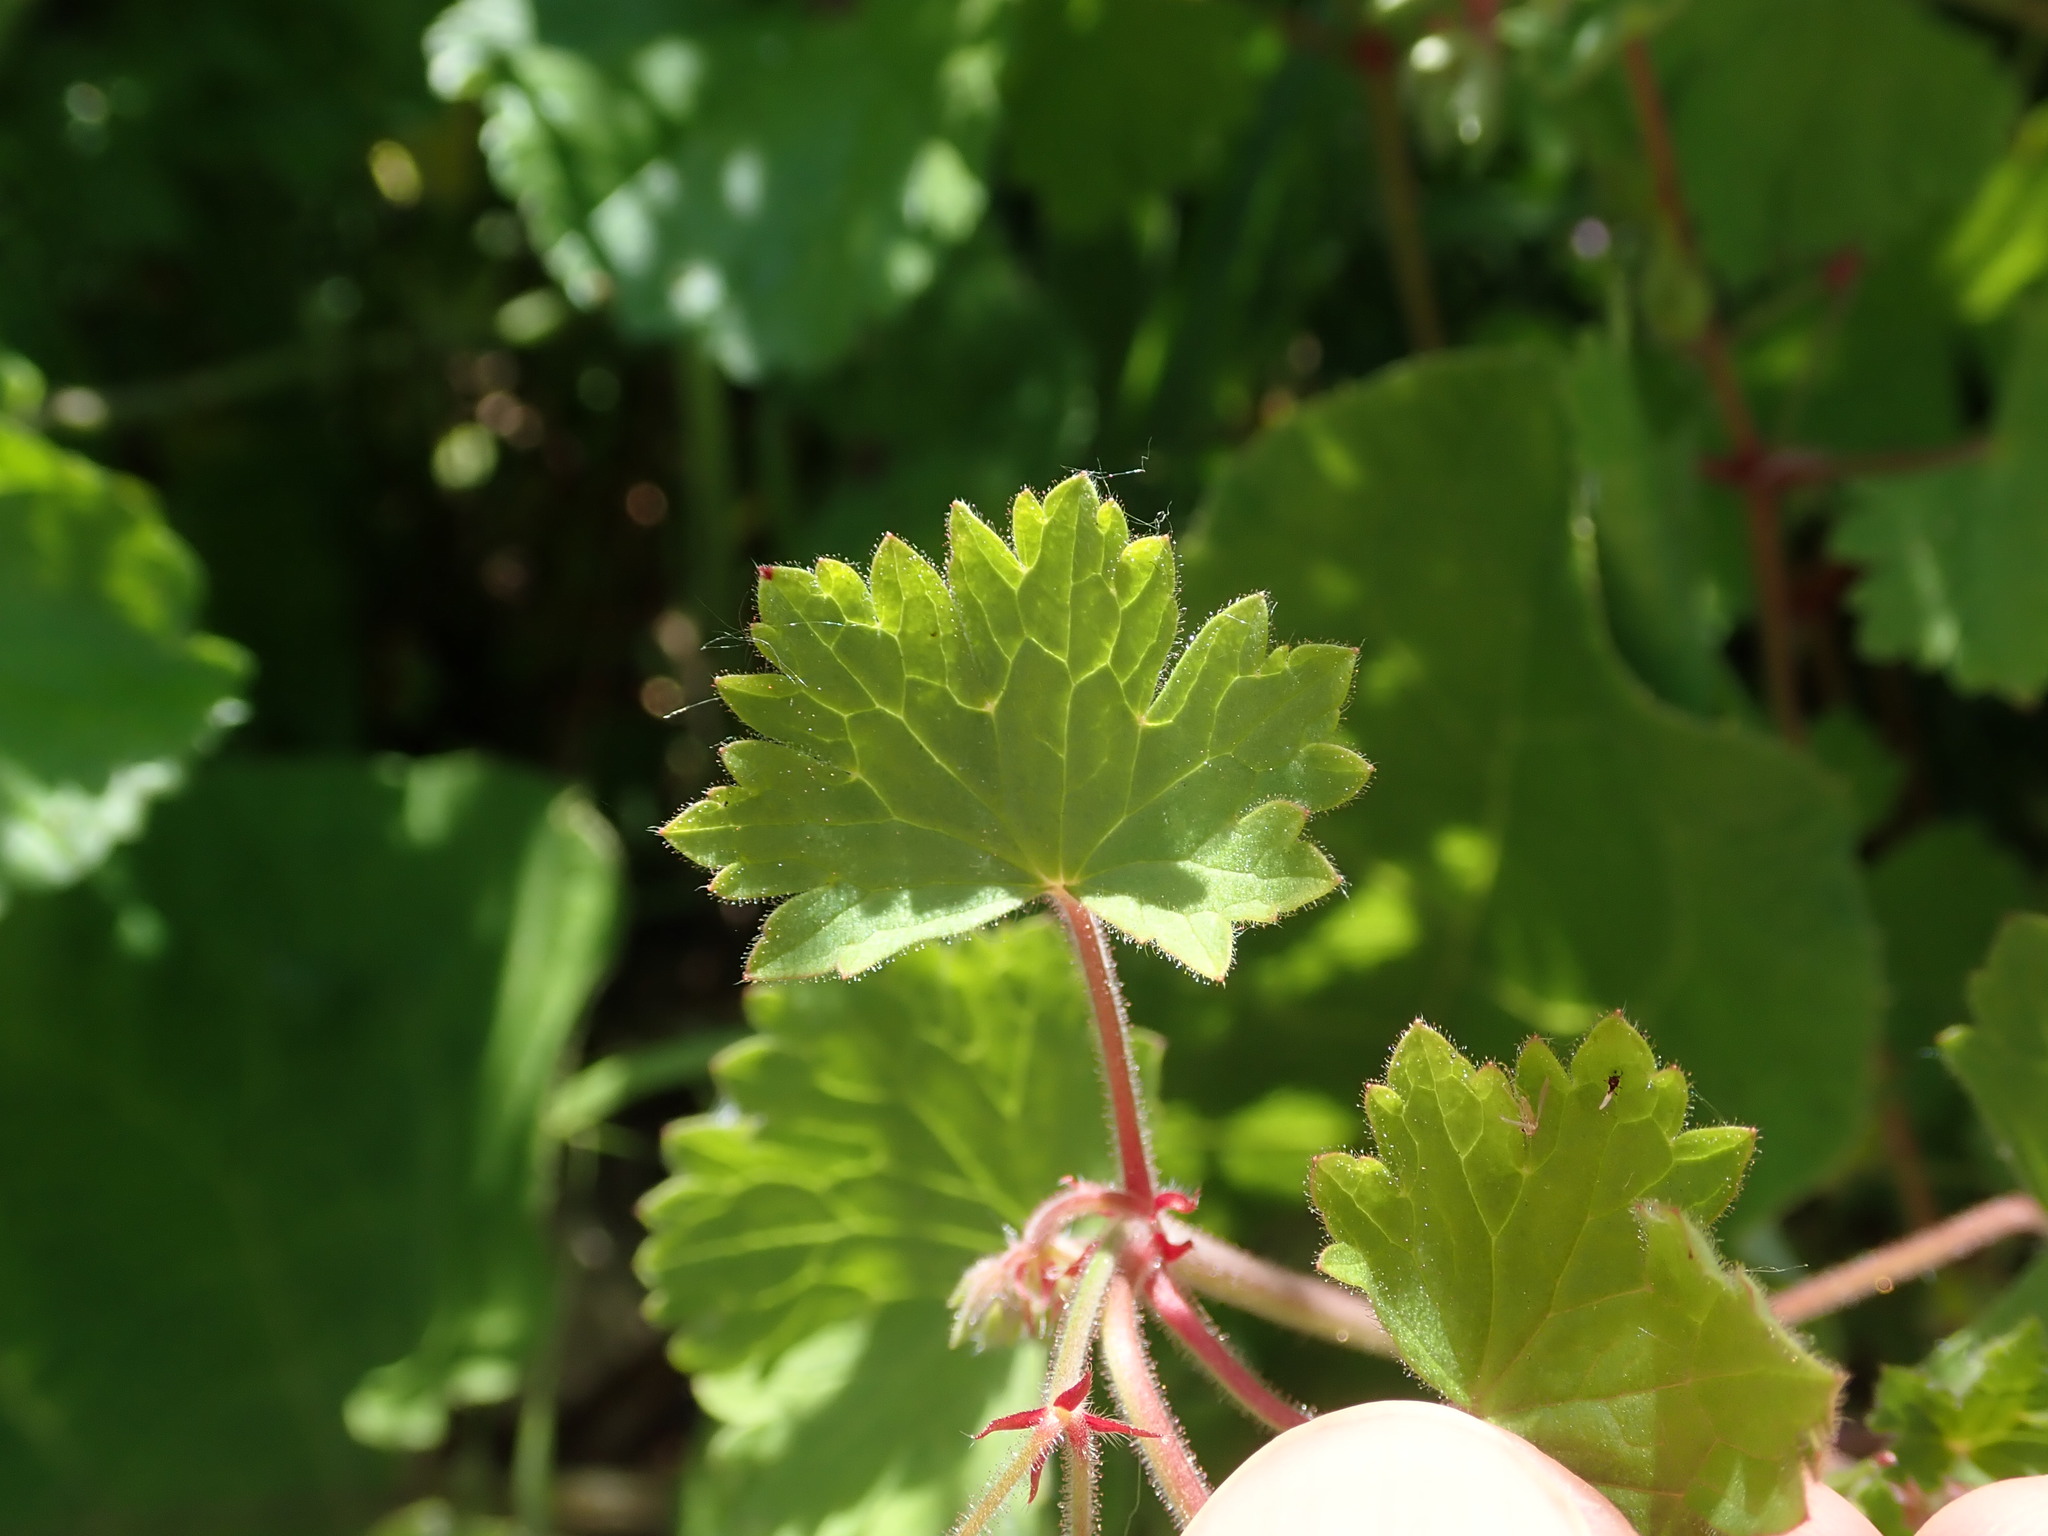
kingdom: Plantae
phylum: Tracheophyta
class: Magnoliopsida
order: Geraniales
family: Geraniaceae
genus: Geranium
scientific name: Geranium rotundifolium
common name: Round-leaved crane's-bill
